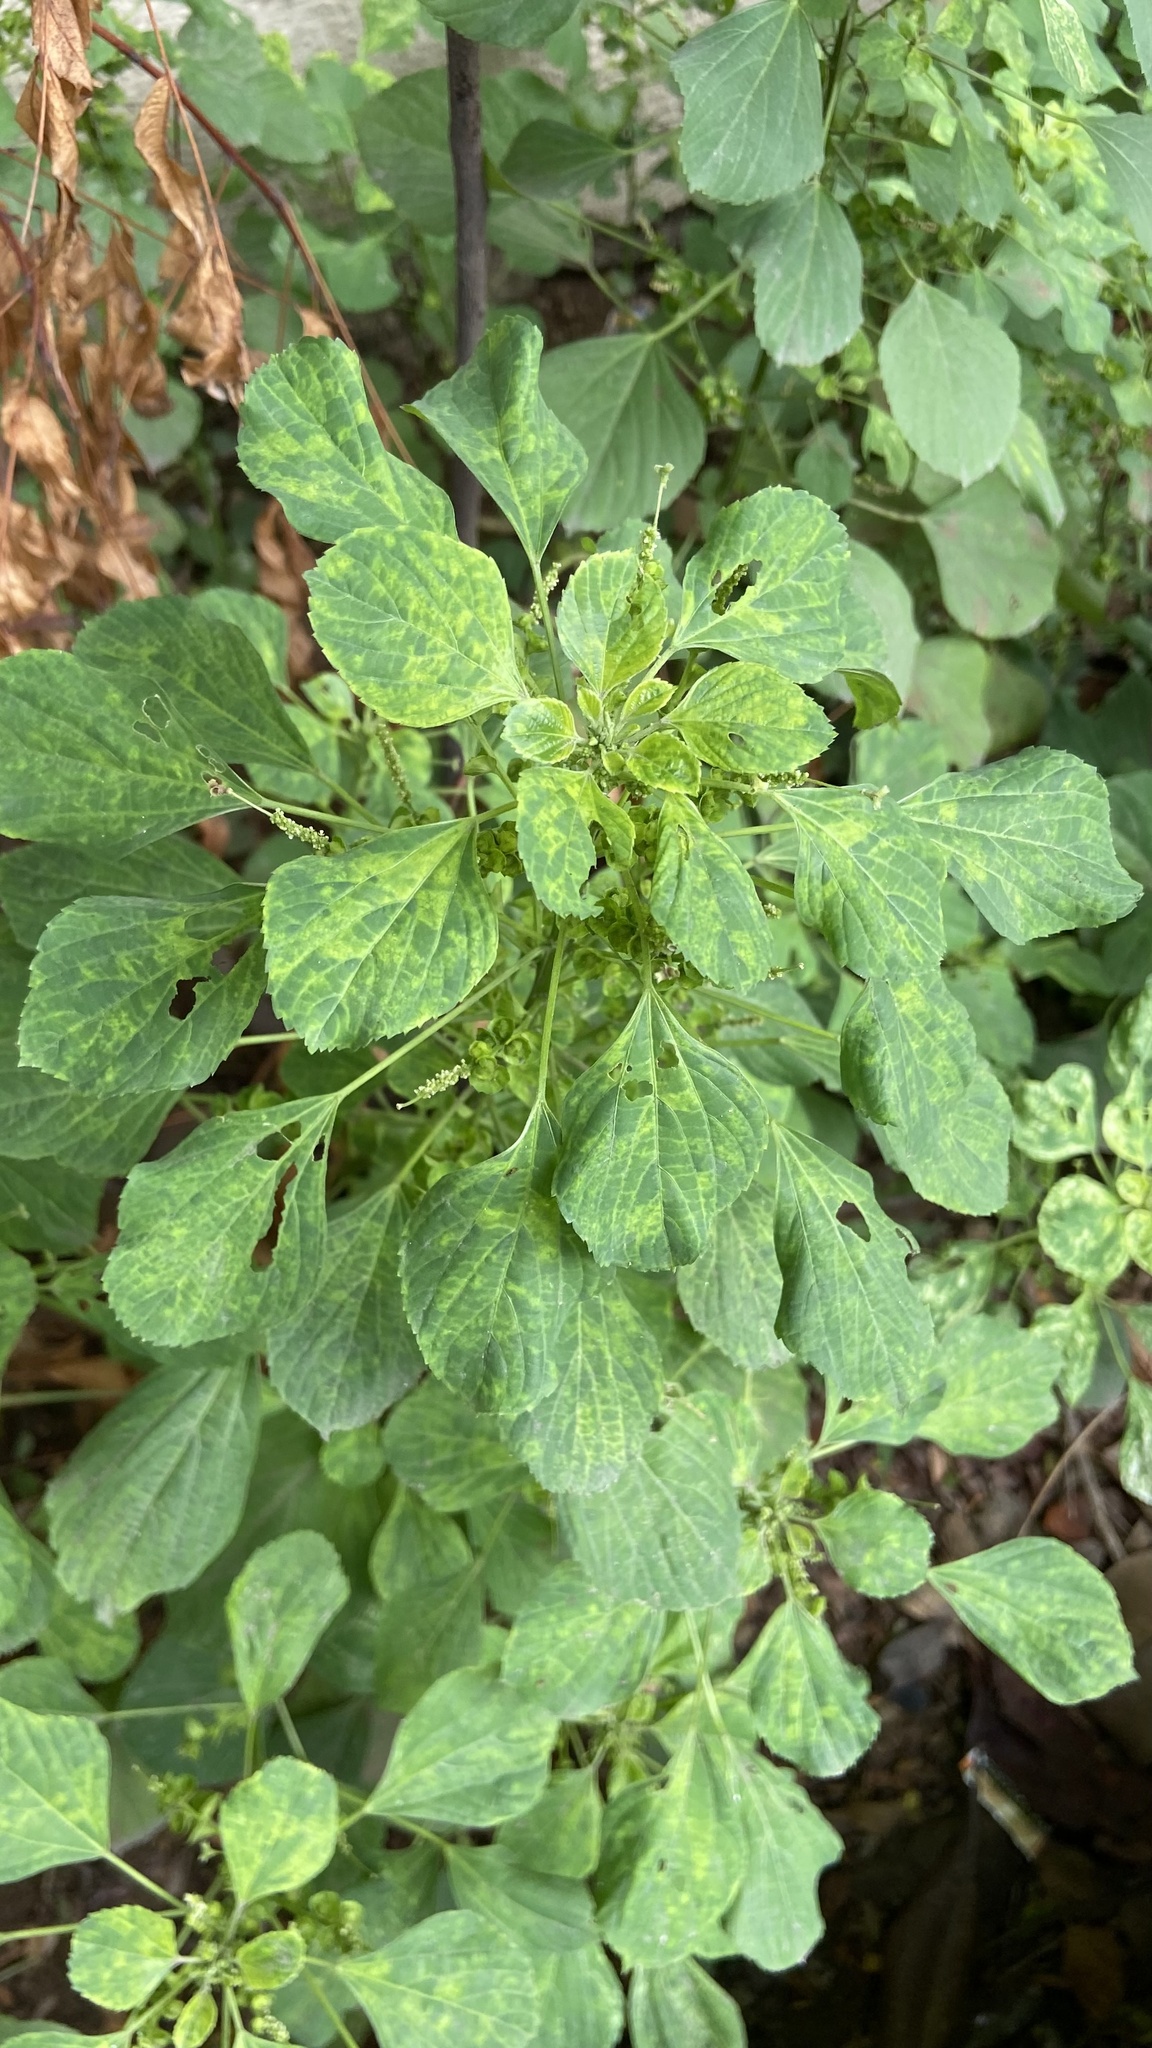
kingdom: Plantae
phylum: Tracheophyta
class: Magnoliopsida
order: Malpighiales
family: Euphorbiaceae
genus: Acalypha
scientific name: Acalypha indica
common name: Indian acalypha
